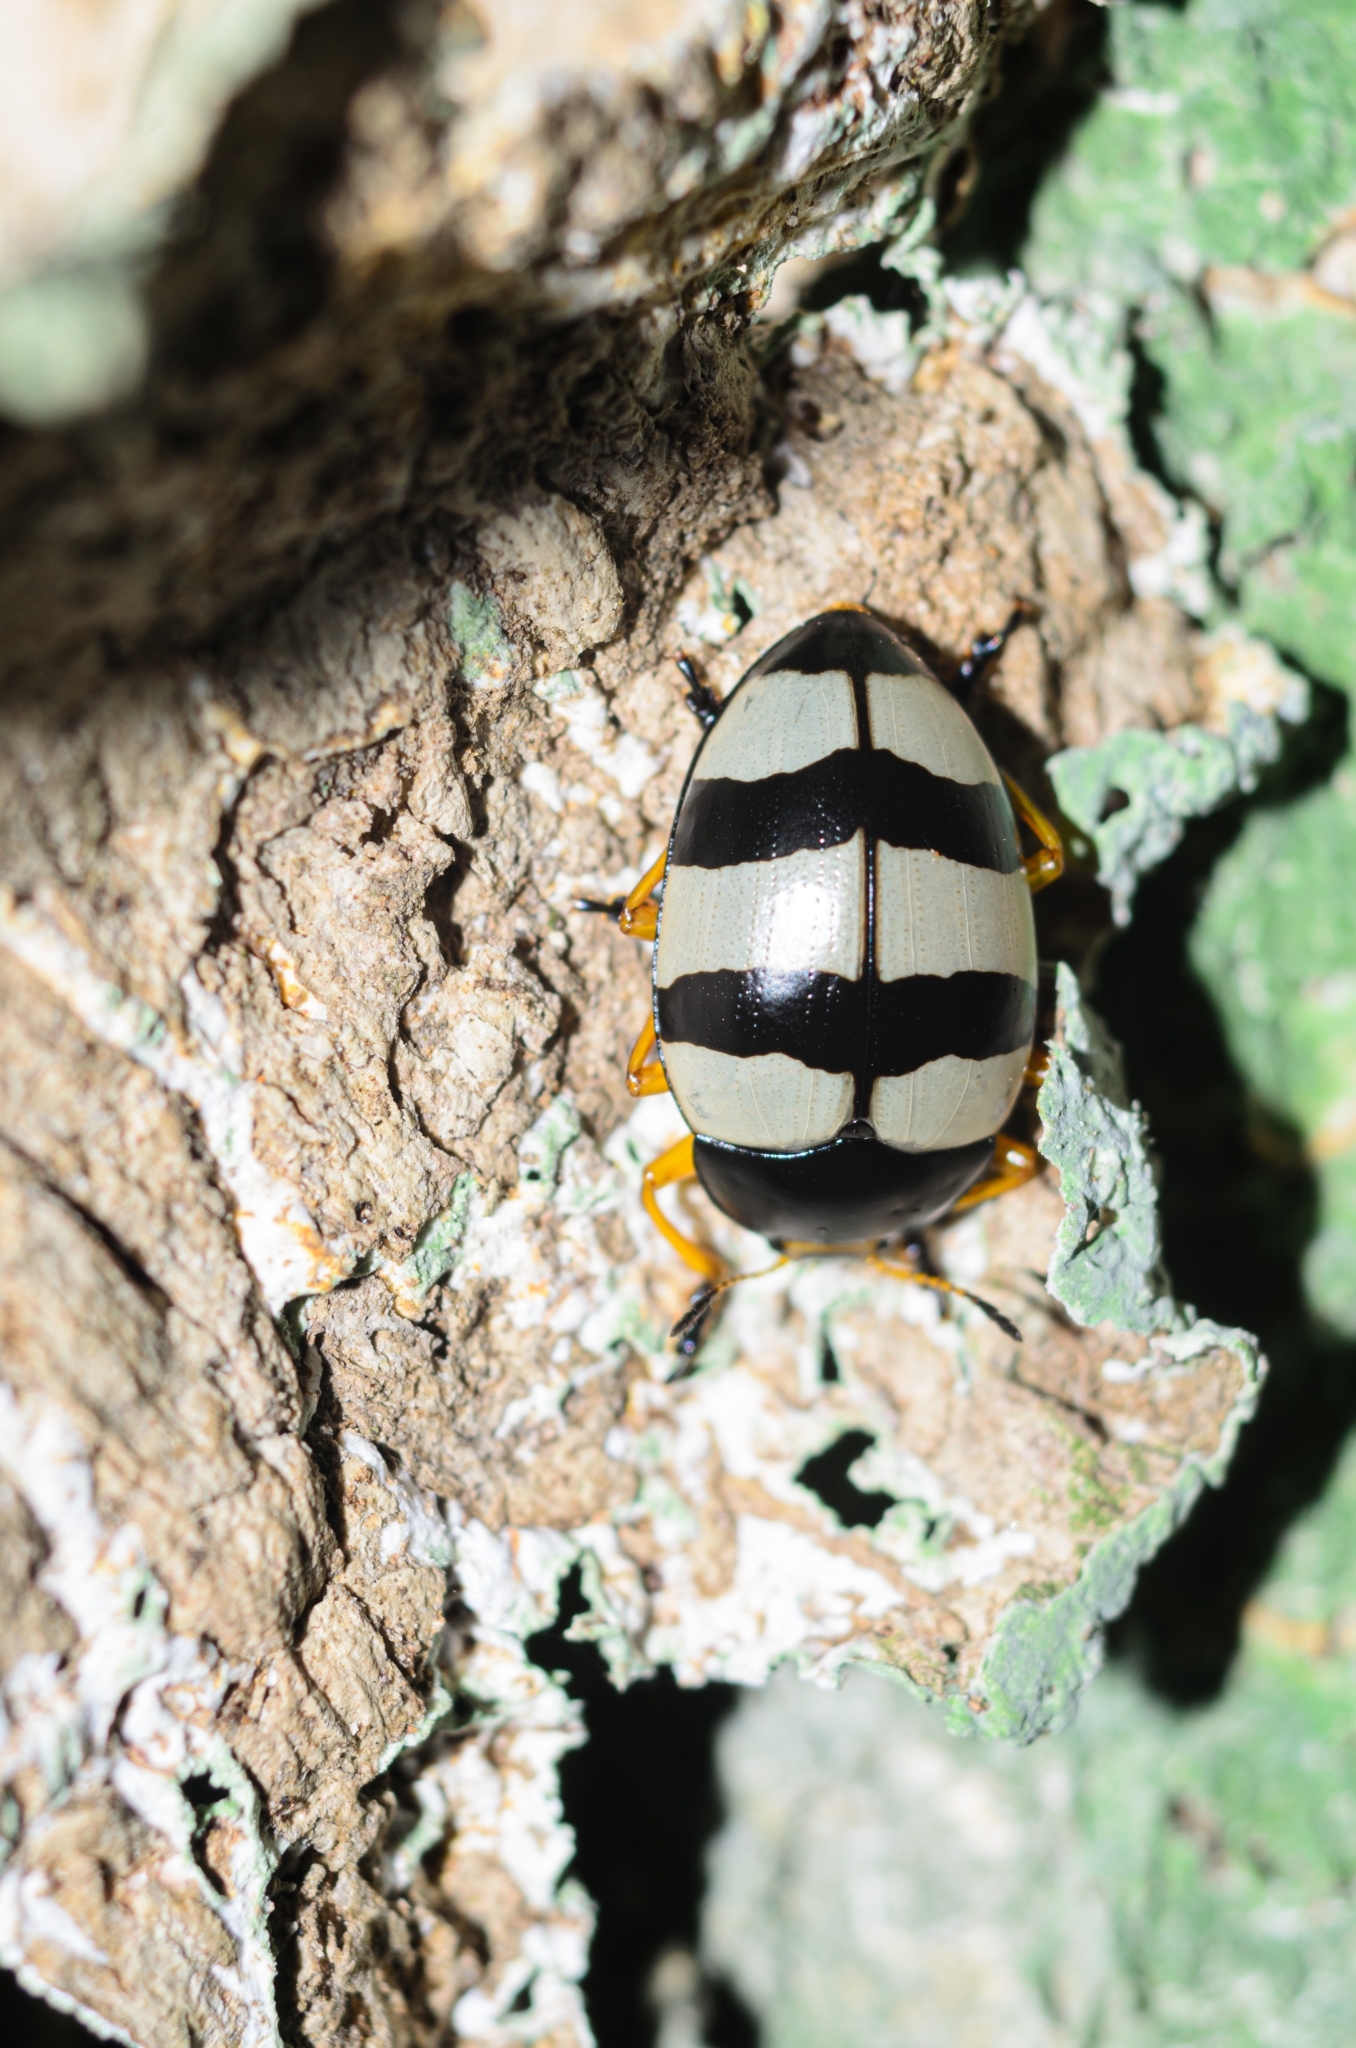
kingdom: Animalia
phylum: Arthropoda
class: Insecta
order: Coleoptera
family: Erotylidae
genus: Iphiclus
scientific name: Iphiclus
